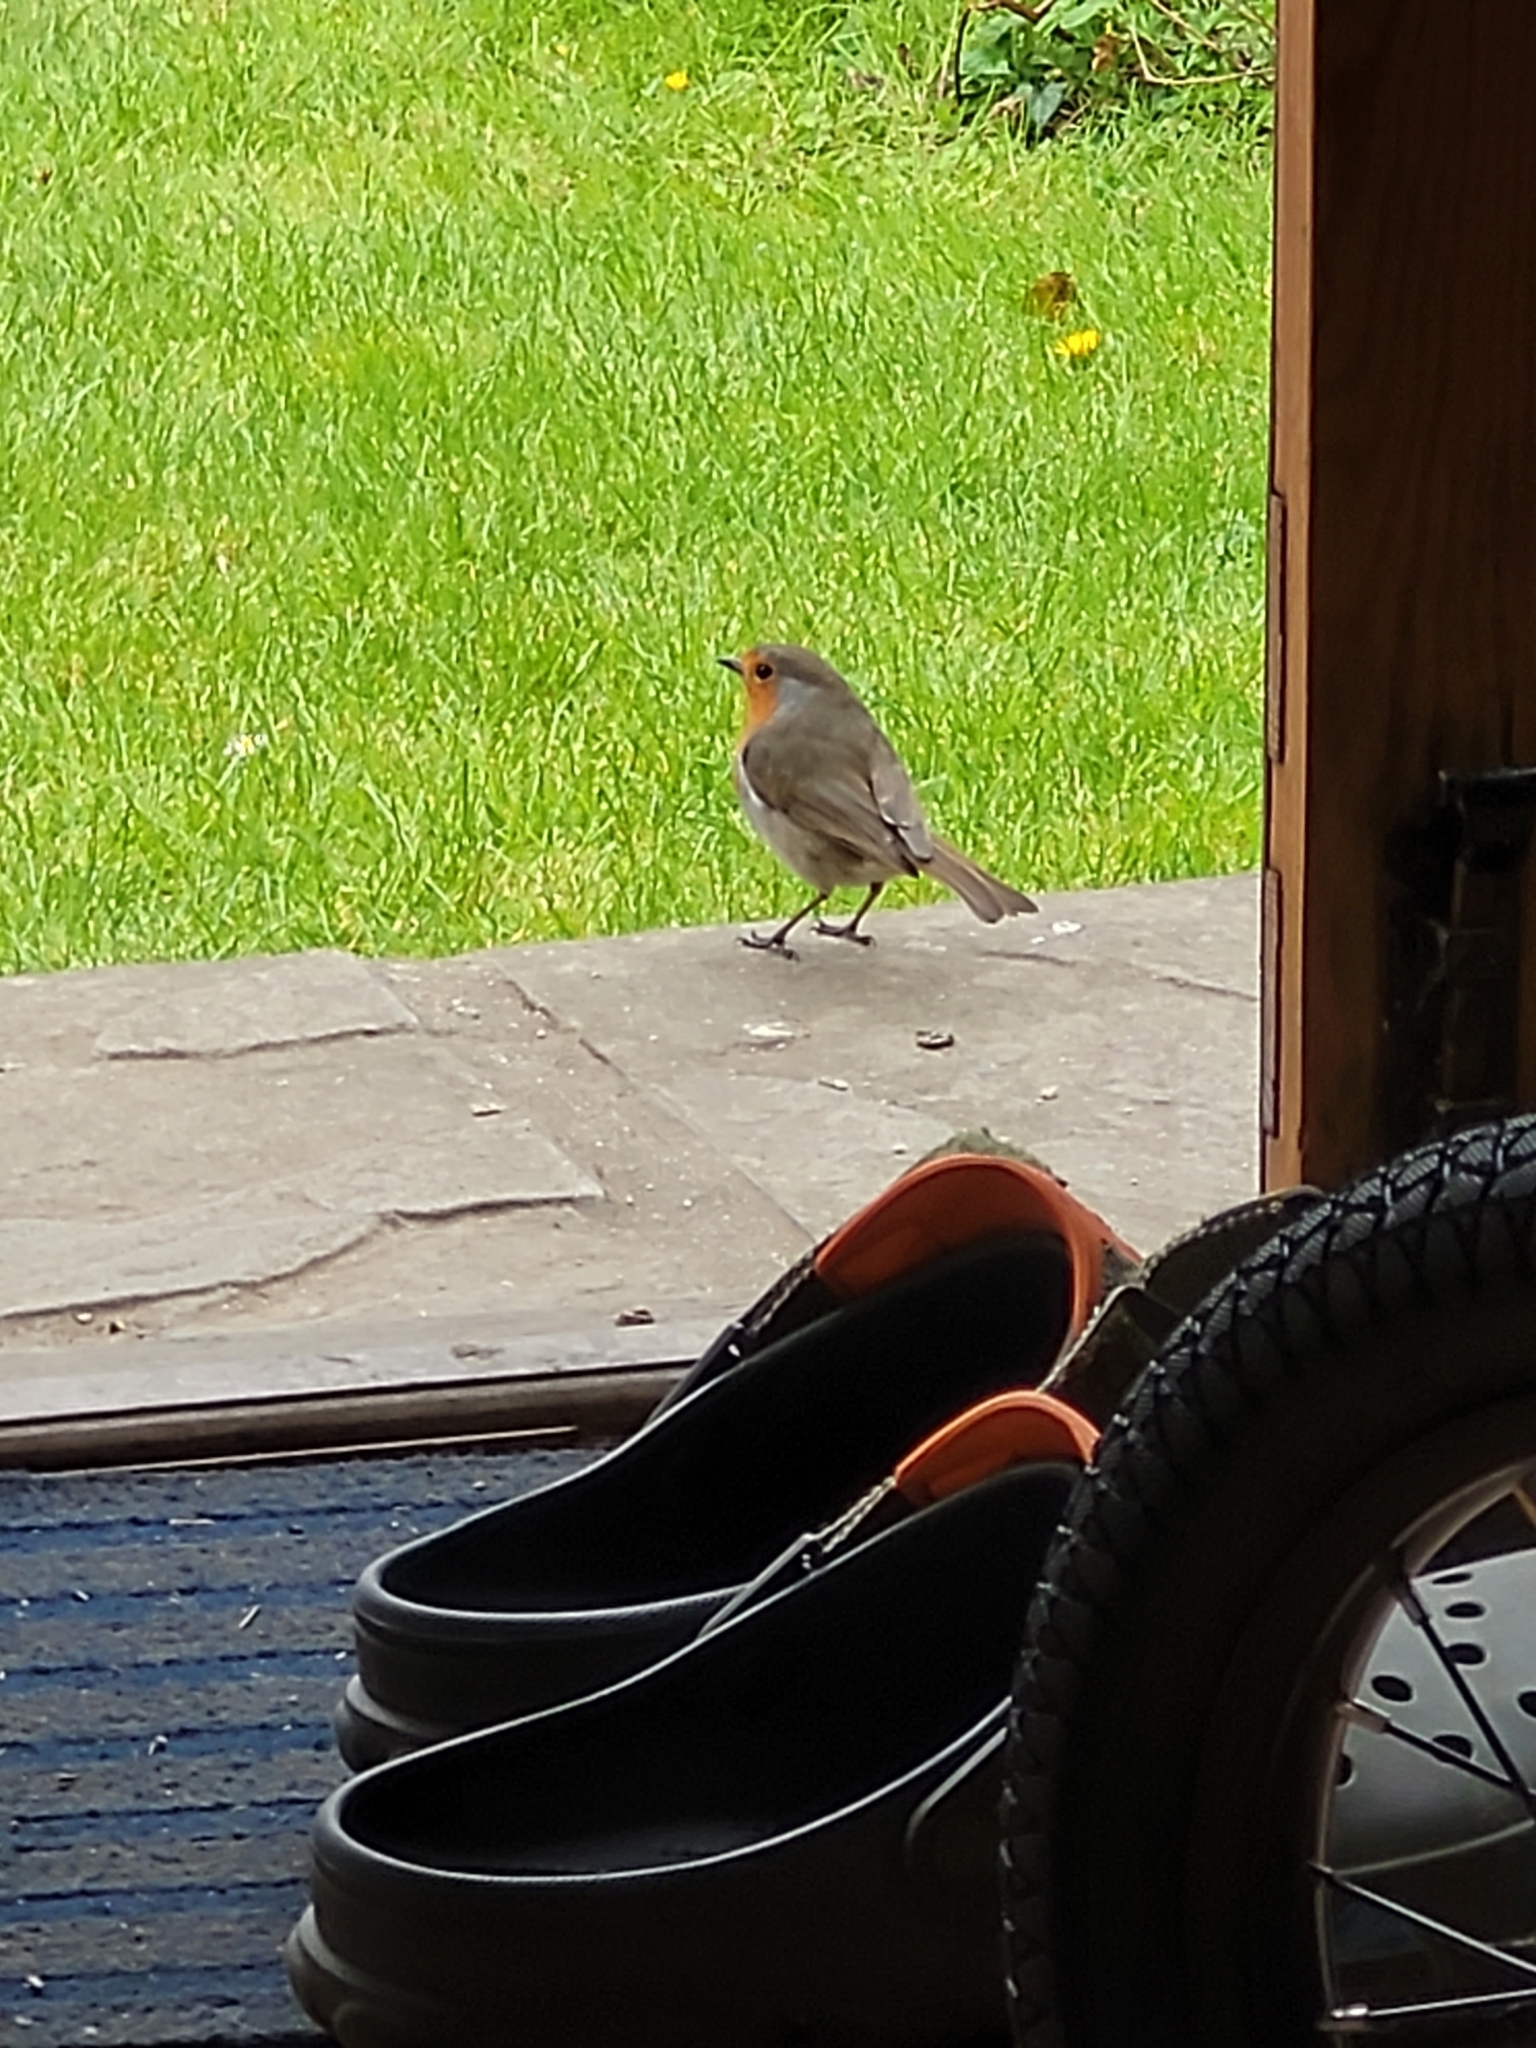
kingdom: Animalia
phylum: Chordata
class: Aves
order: Passeriformes
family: Muscicapidae
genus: Erithacus
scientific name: Erithacus rubecula
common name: European robin
